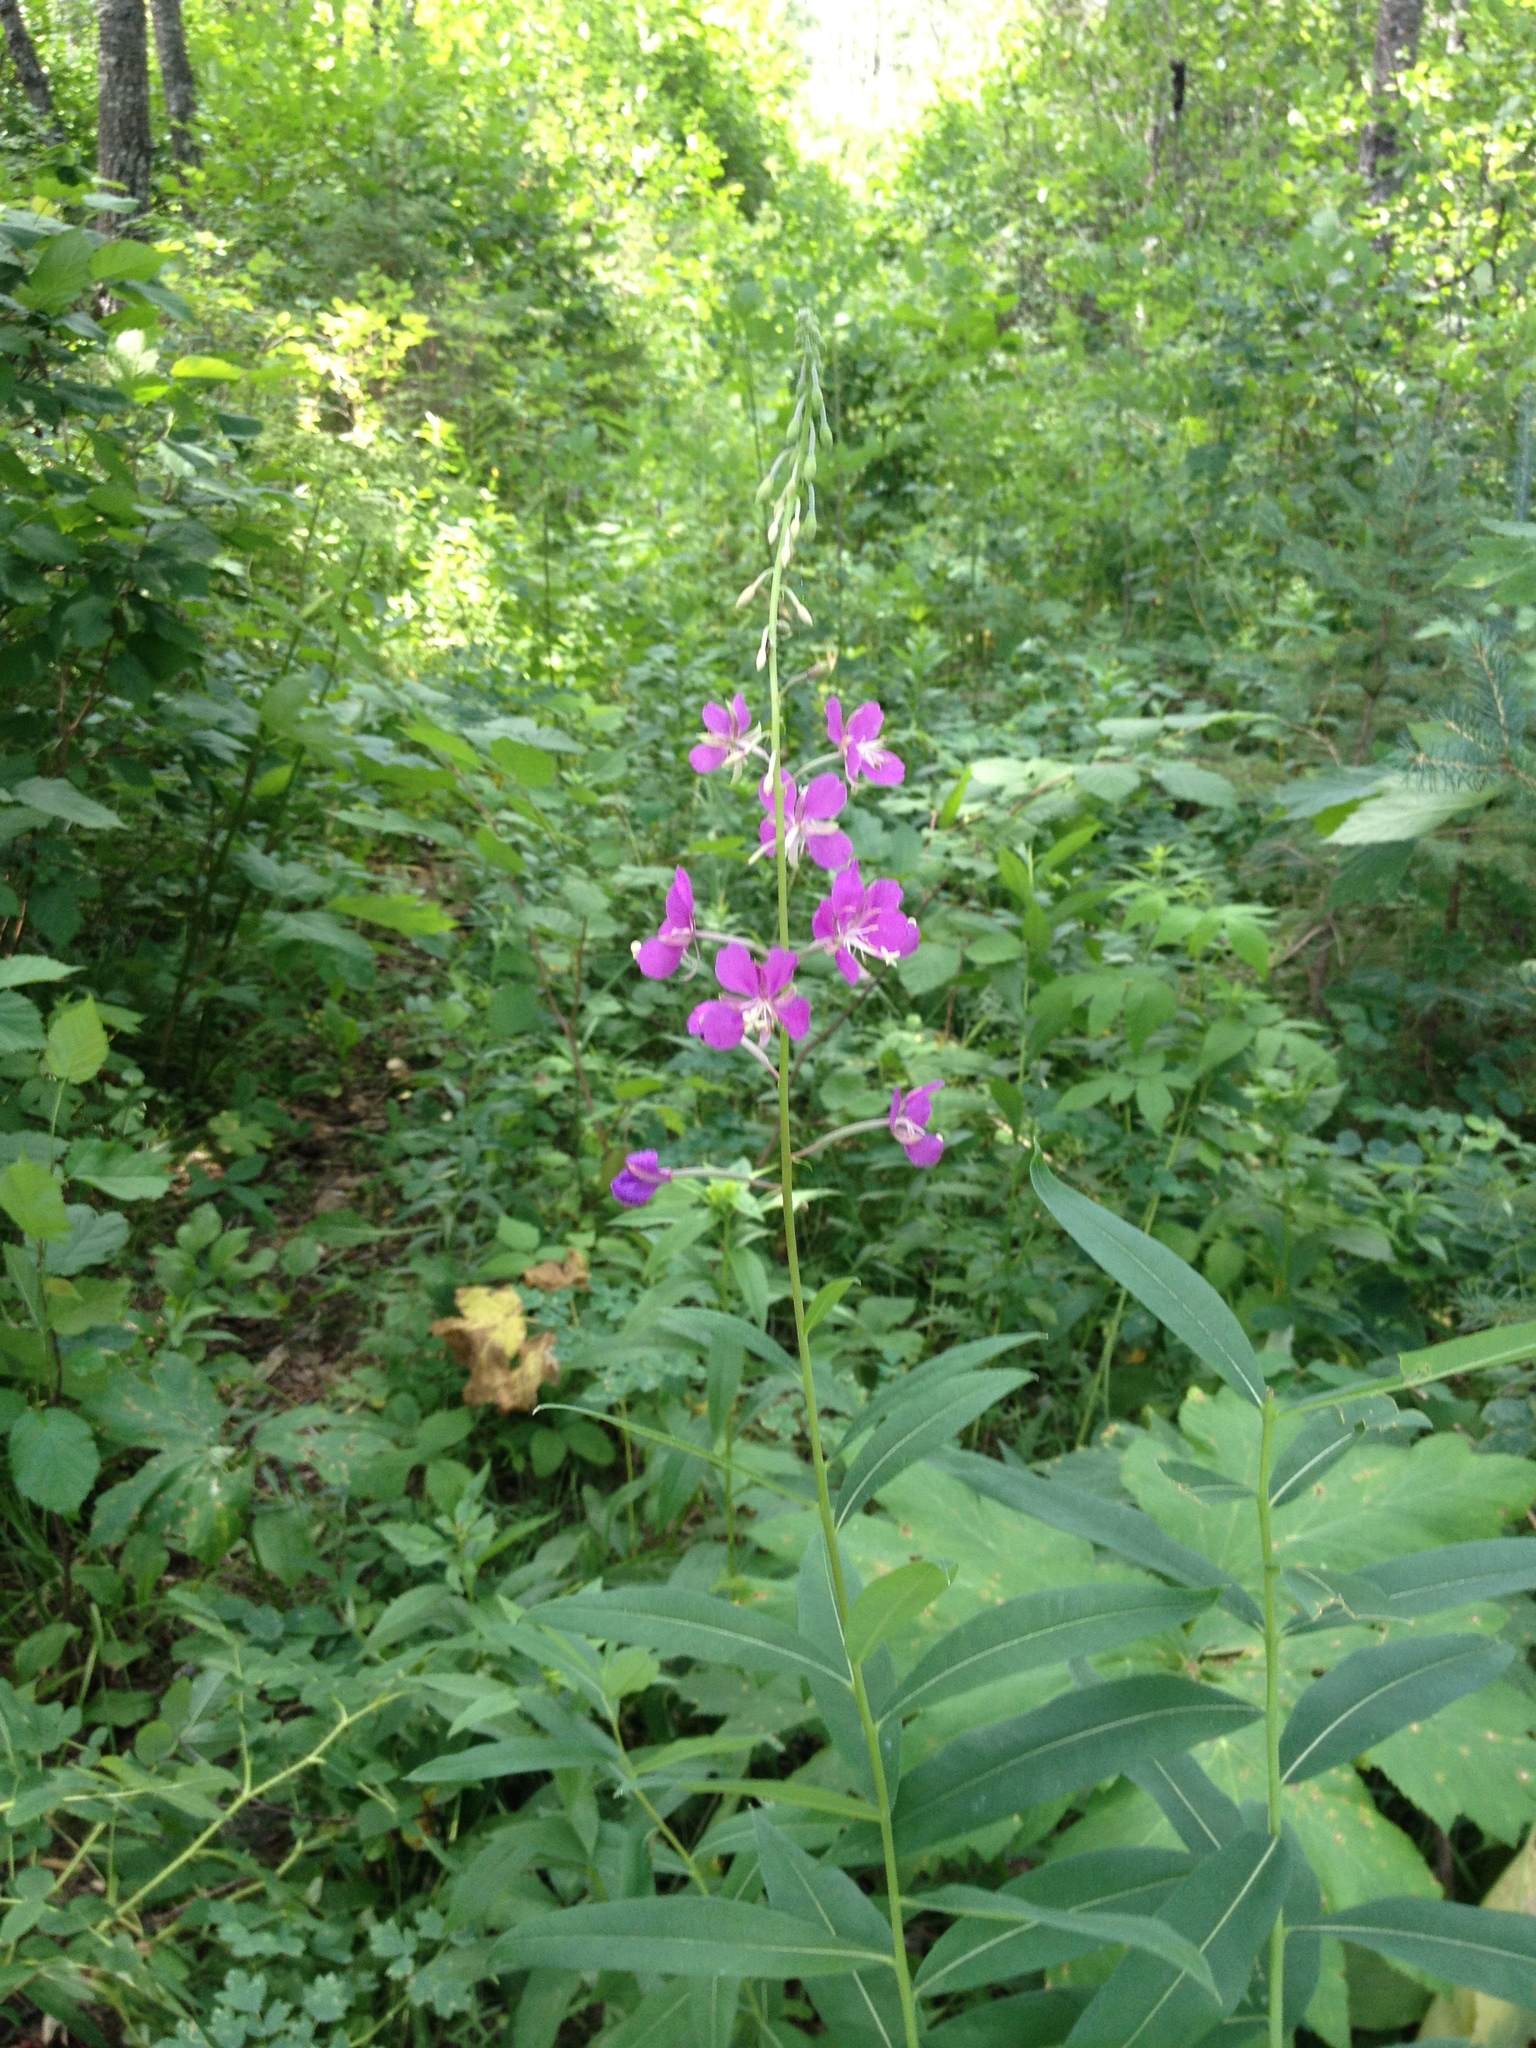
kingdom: Plantae
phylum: Tracheophyta
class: Magnoliopsida
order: Myrtales
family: Onagraceae
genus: Chamaenerion
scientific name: Chamaenerion angustifolium
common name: Fireweed
